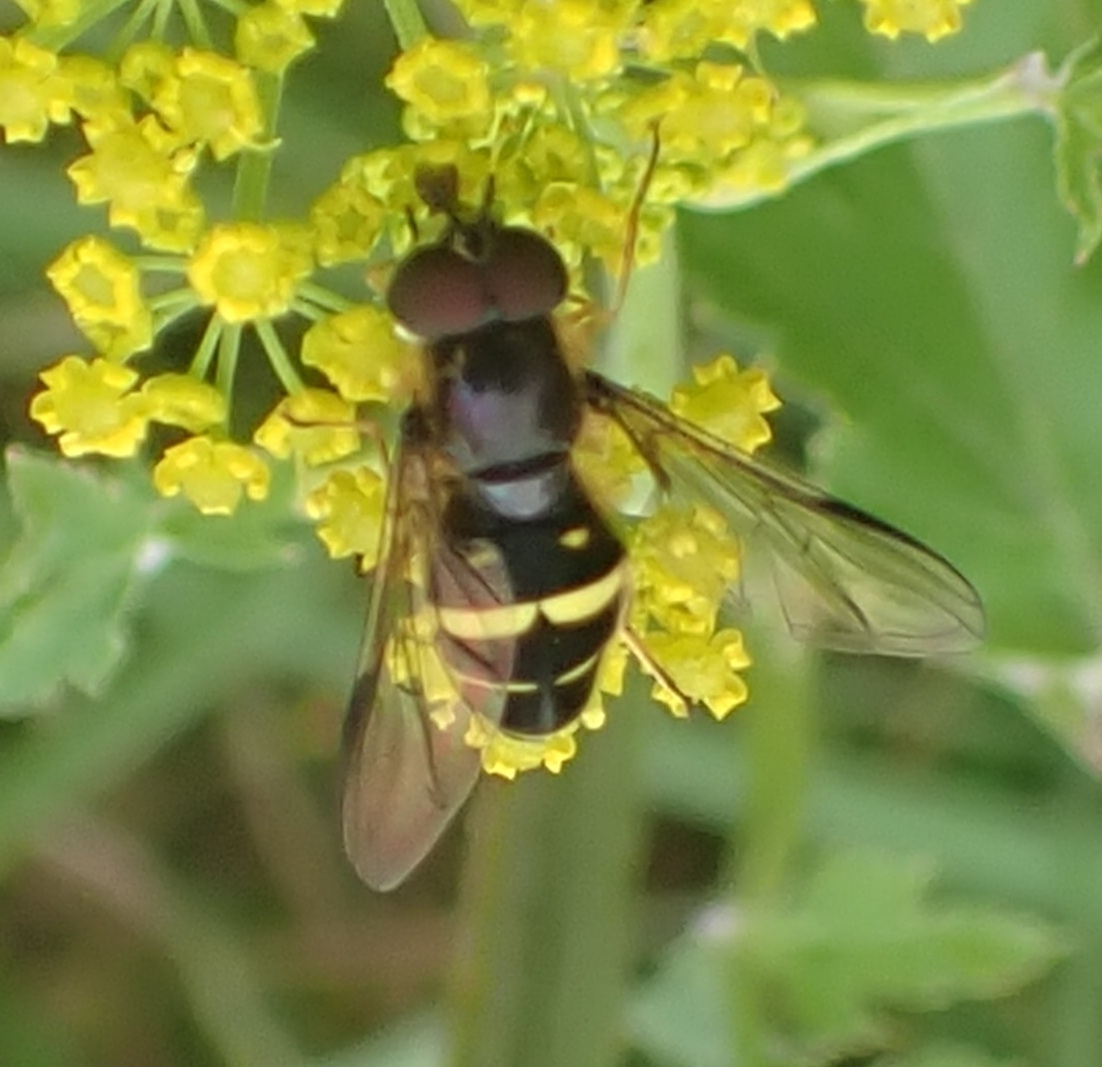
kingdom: Animalia
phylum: Arthropoda
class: Insecta
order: Diptera
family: Syrphidae
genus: Dasysyrphus
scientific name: Dasysyrphus tricinctus
